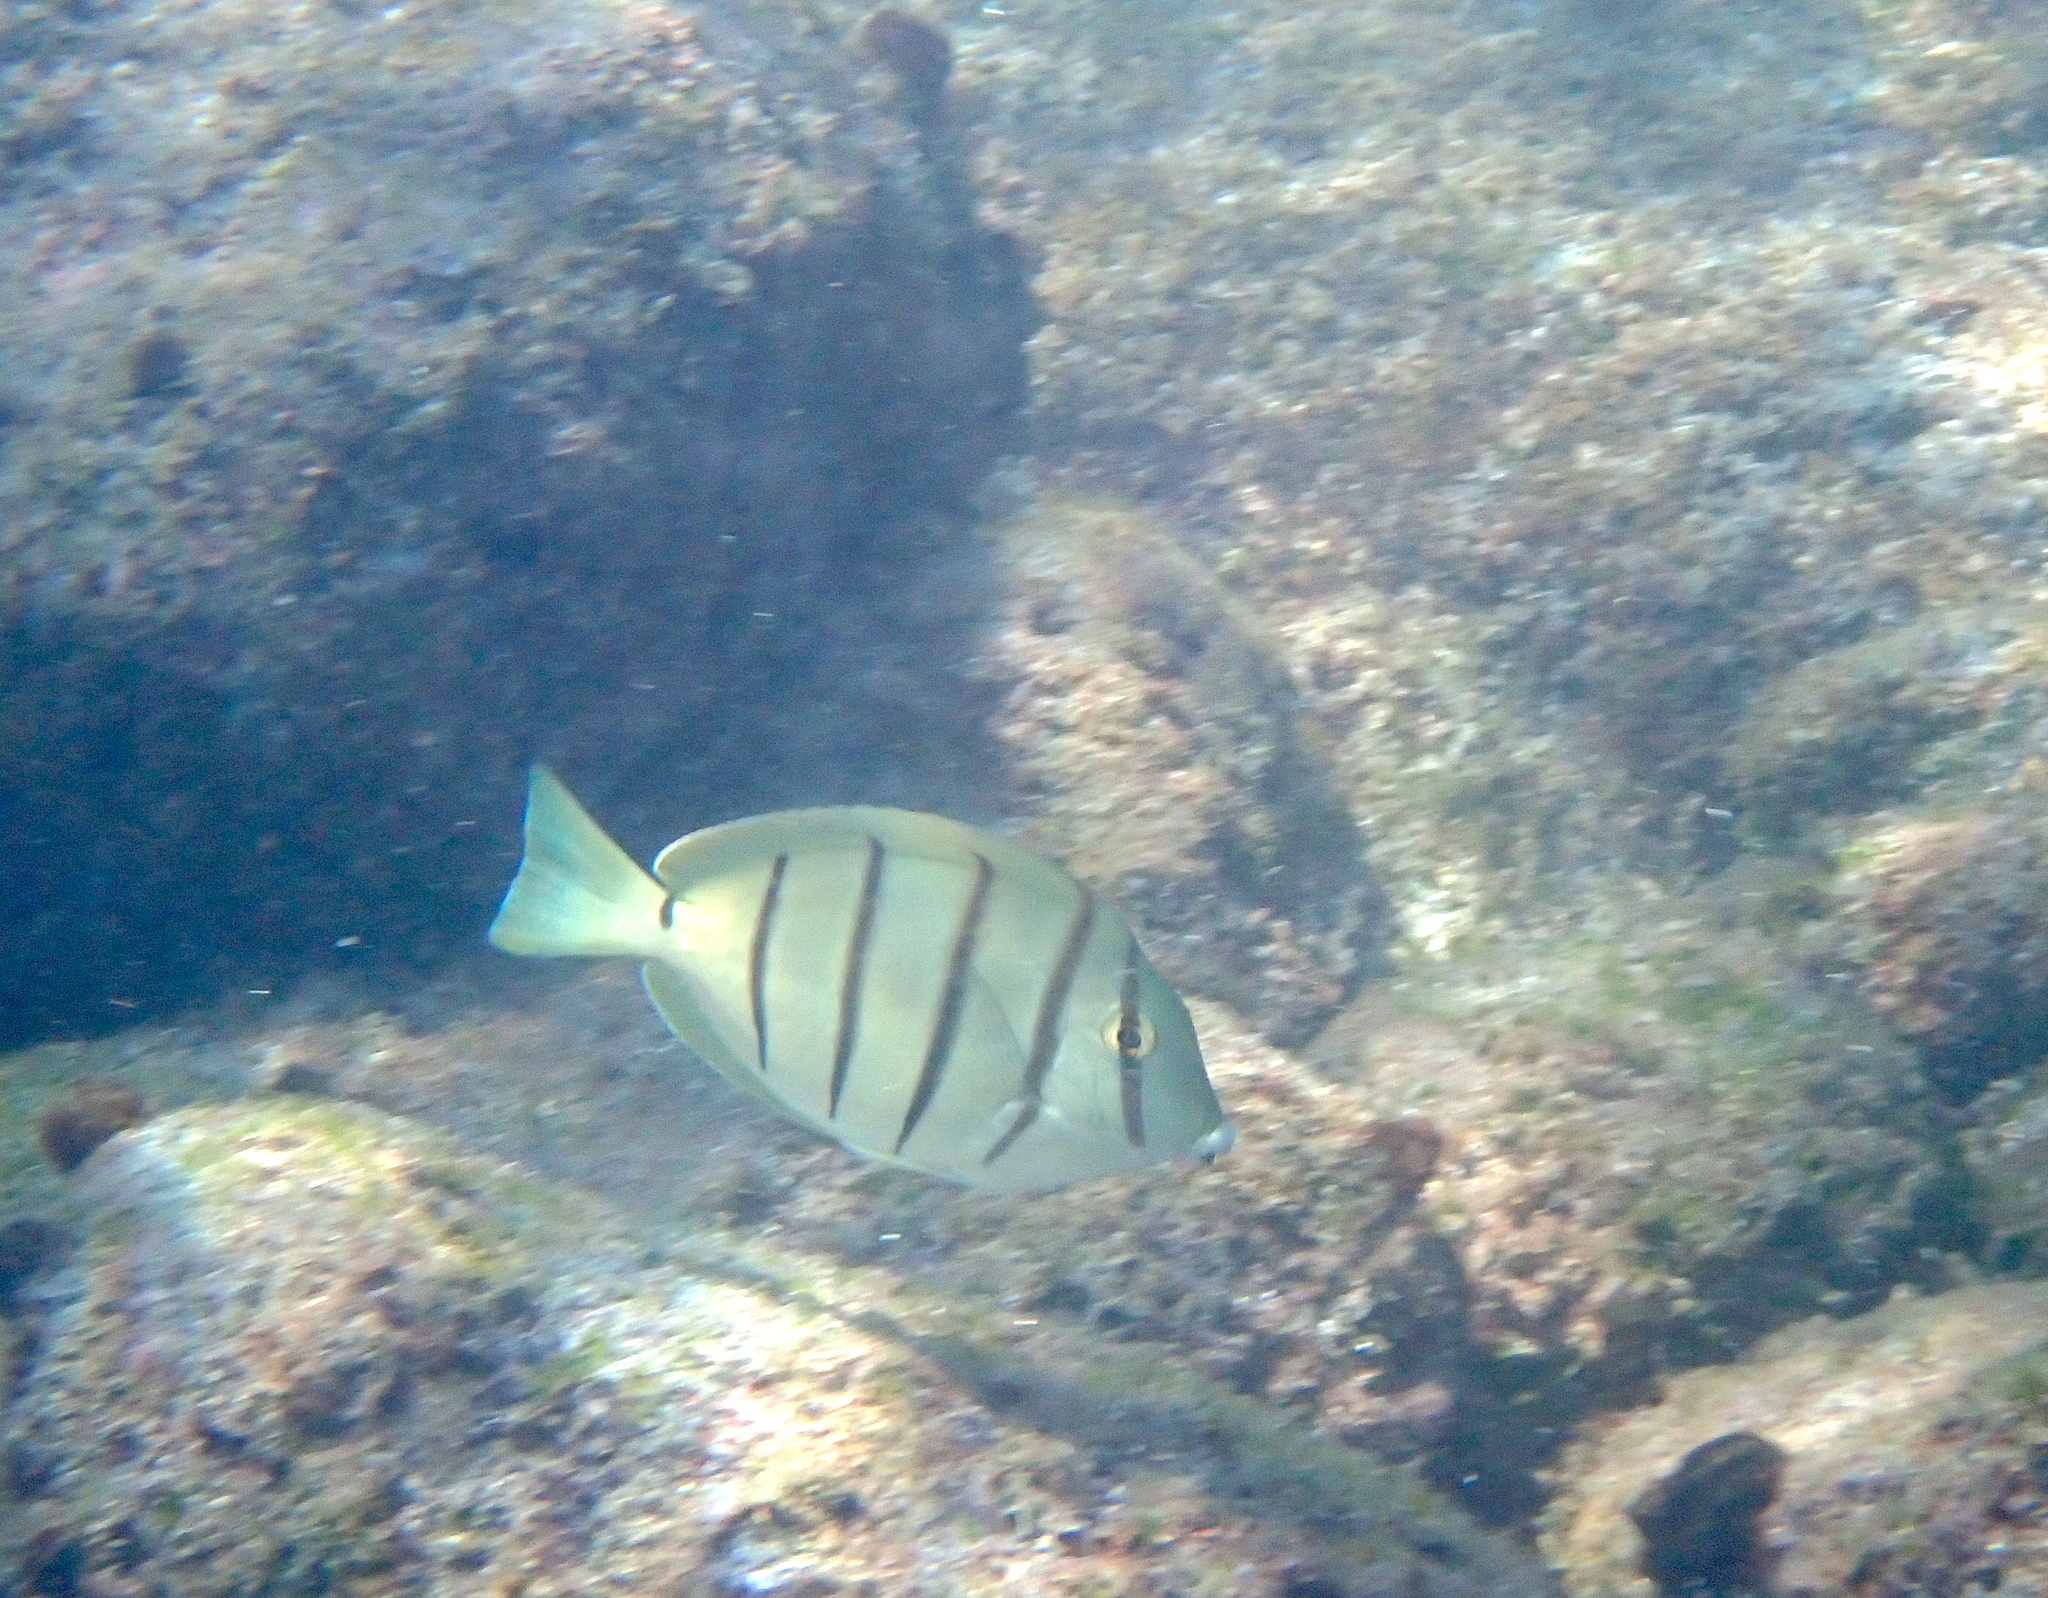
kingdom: Animalia
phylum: Chordata
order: Perciformes
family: Acanthuridae
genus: Acanthurus
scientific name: Acanthurus triostegus
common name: Convict surgeonfish
